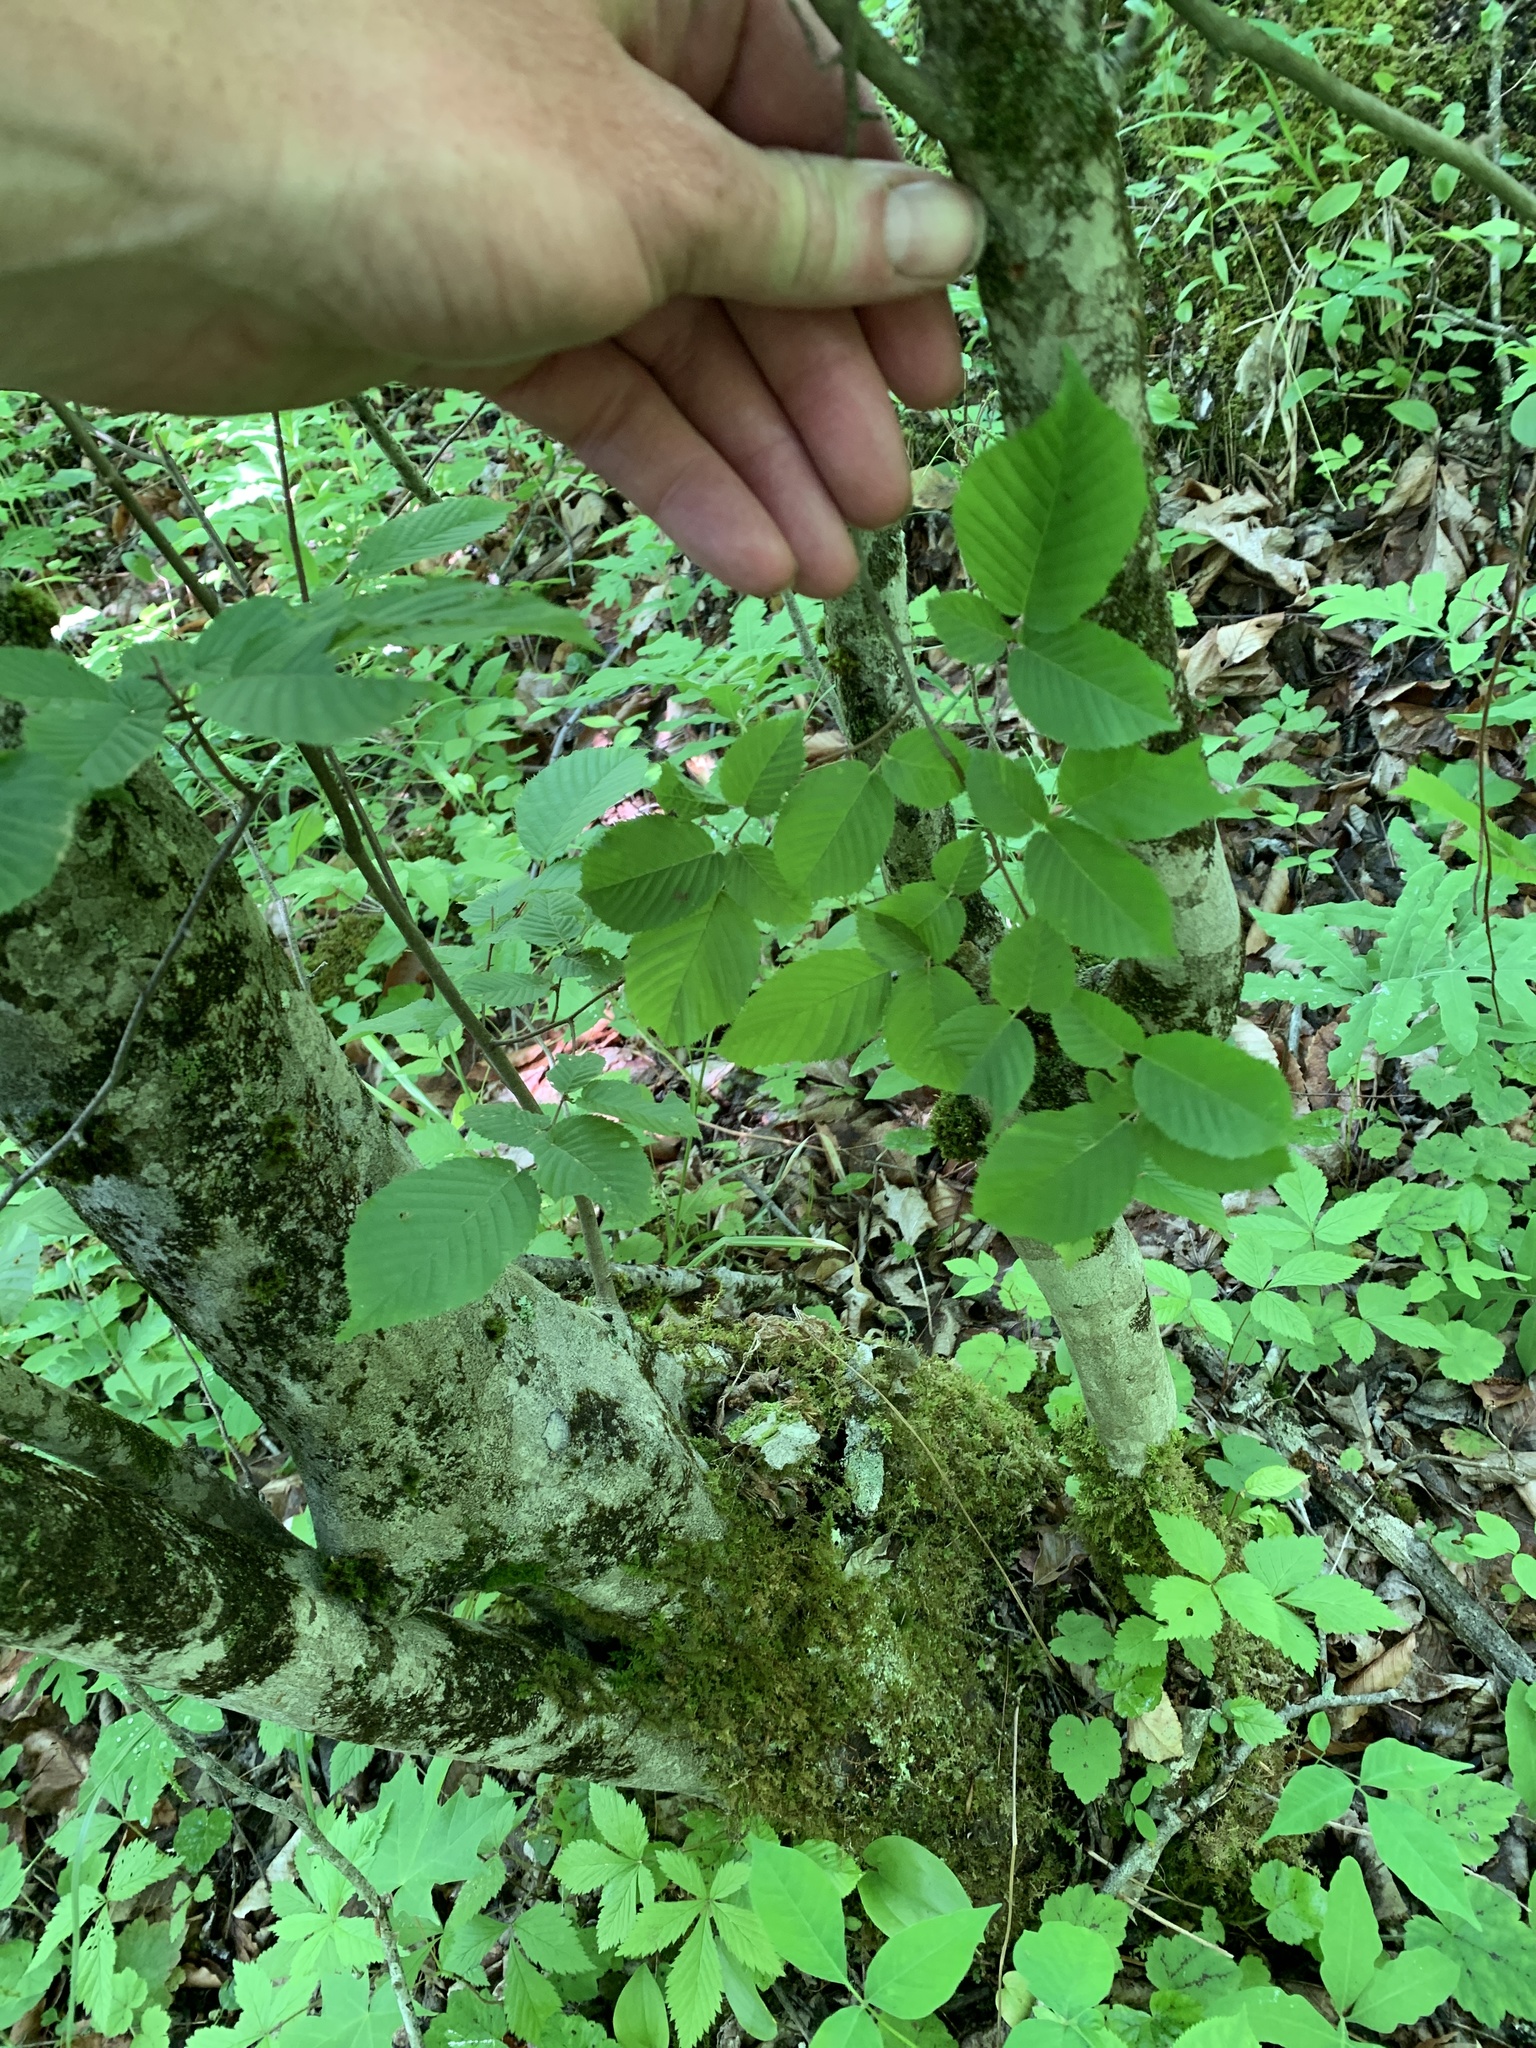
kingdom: Plantae
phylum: Tracheophyta
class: Magnoliopsida
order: Fagales
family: Betulaceae
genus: Carpinus
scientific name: Carpinus caroliniana
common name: American hornbeam
